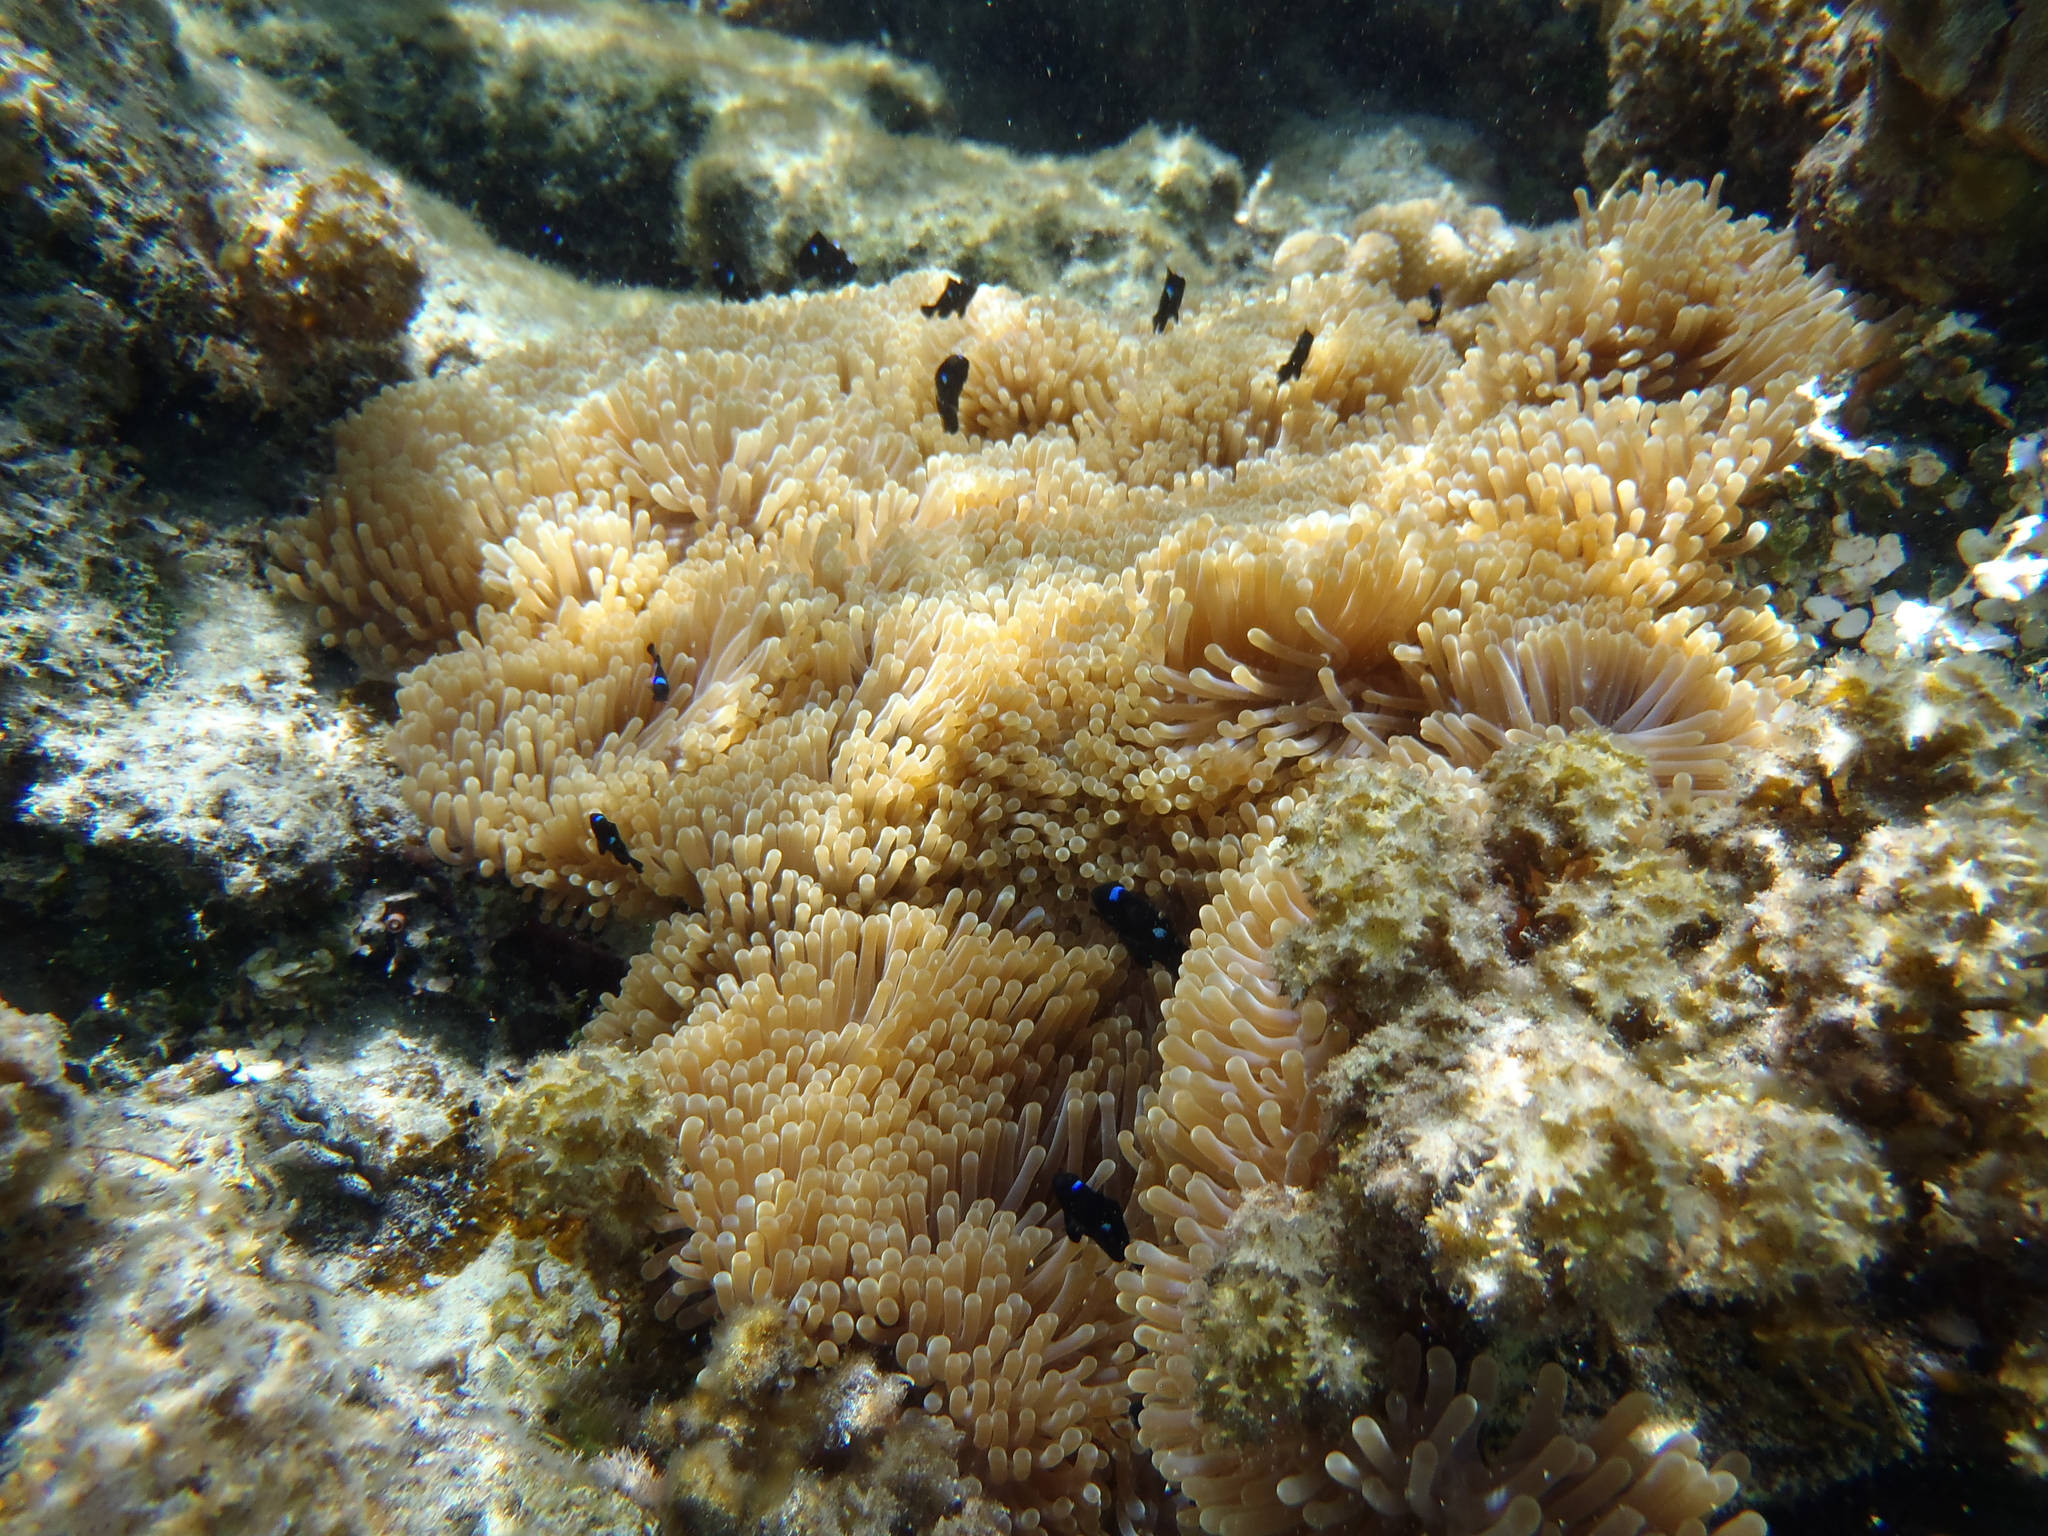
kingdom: Animalia
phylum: Chordata
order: Perciformes
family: Pomacentridae
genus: Dascyllus
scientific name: Dascyllus trimaculatus
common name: Threespot dascyllus
